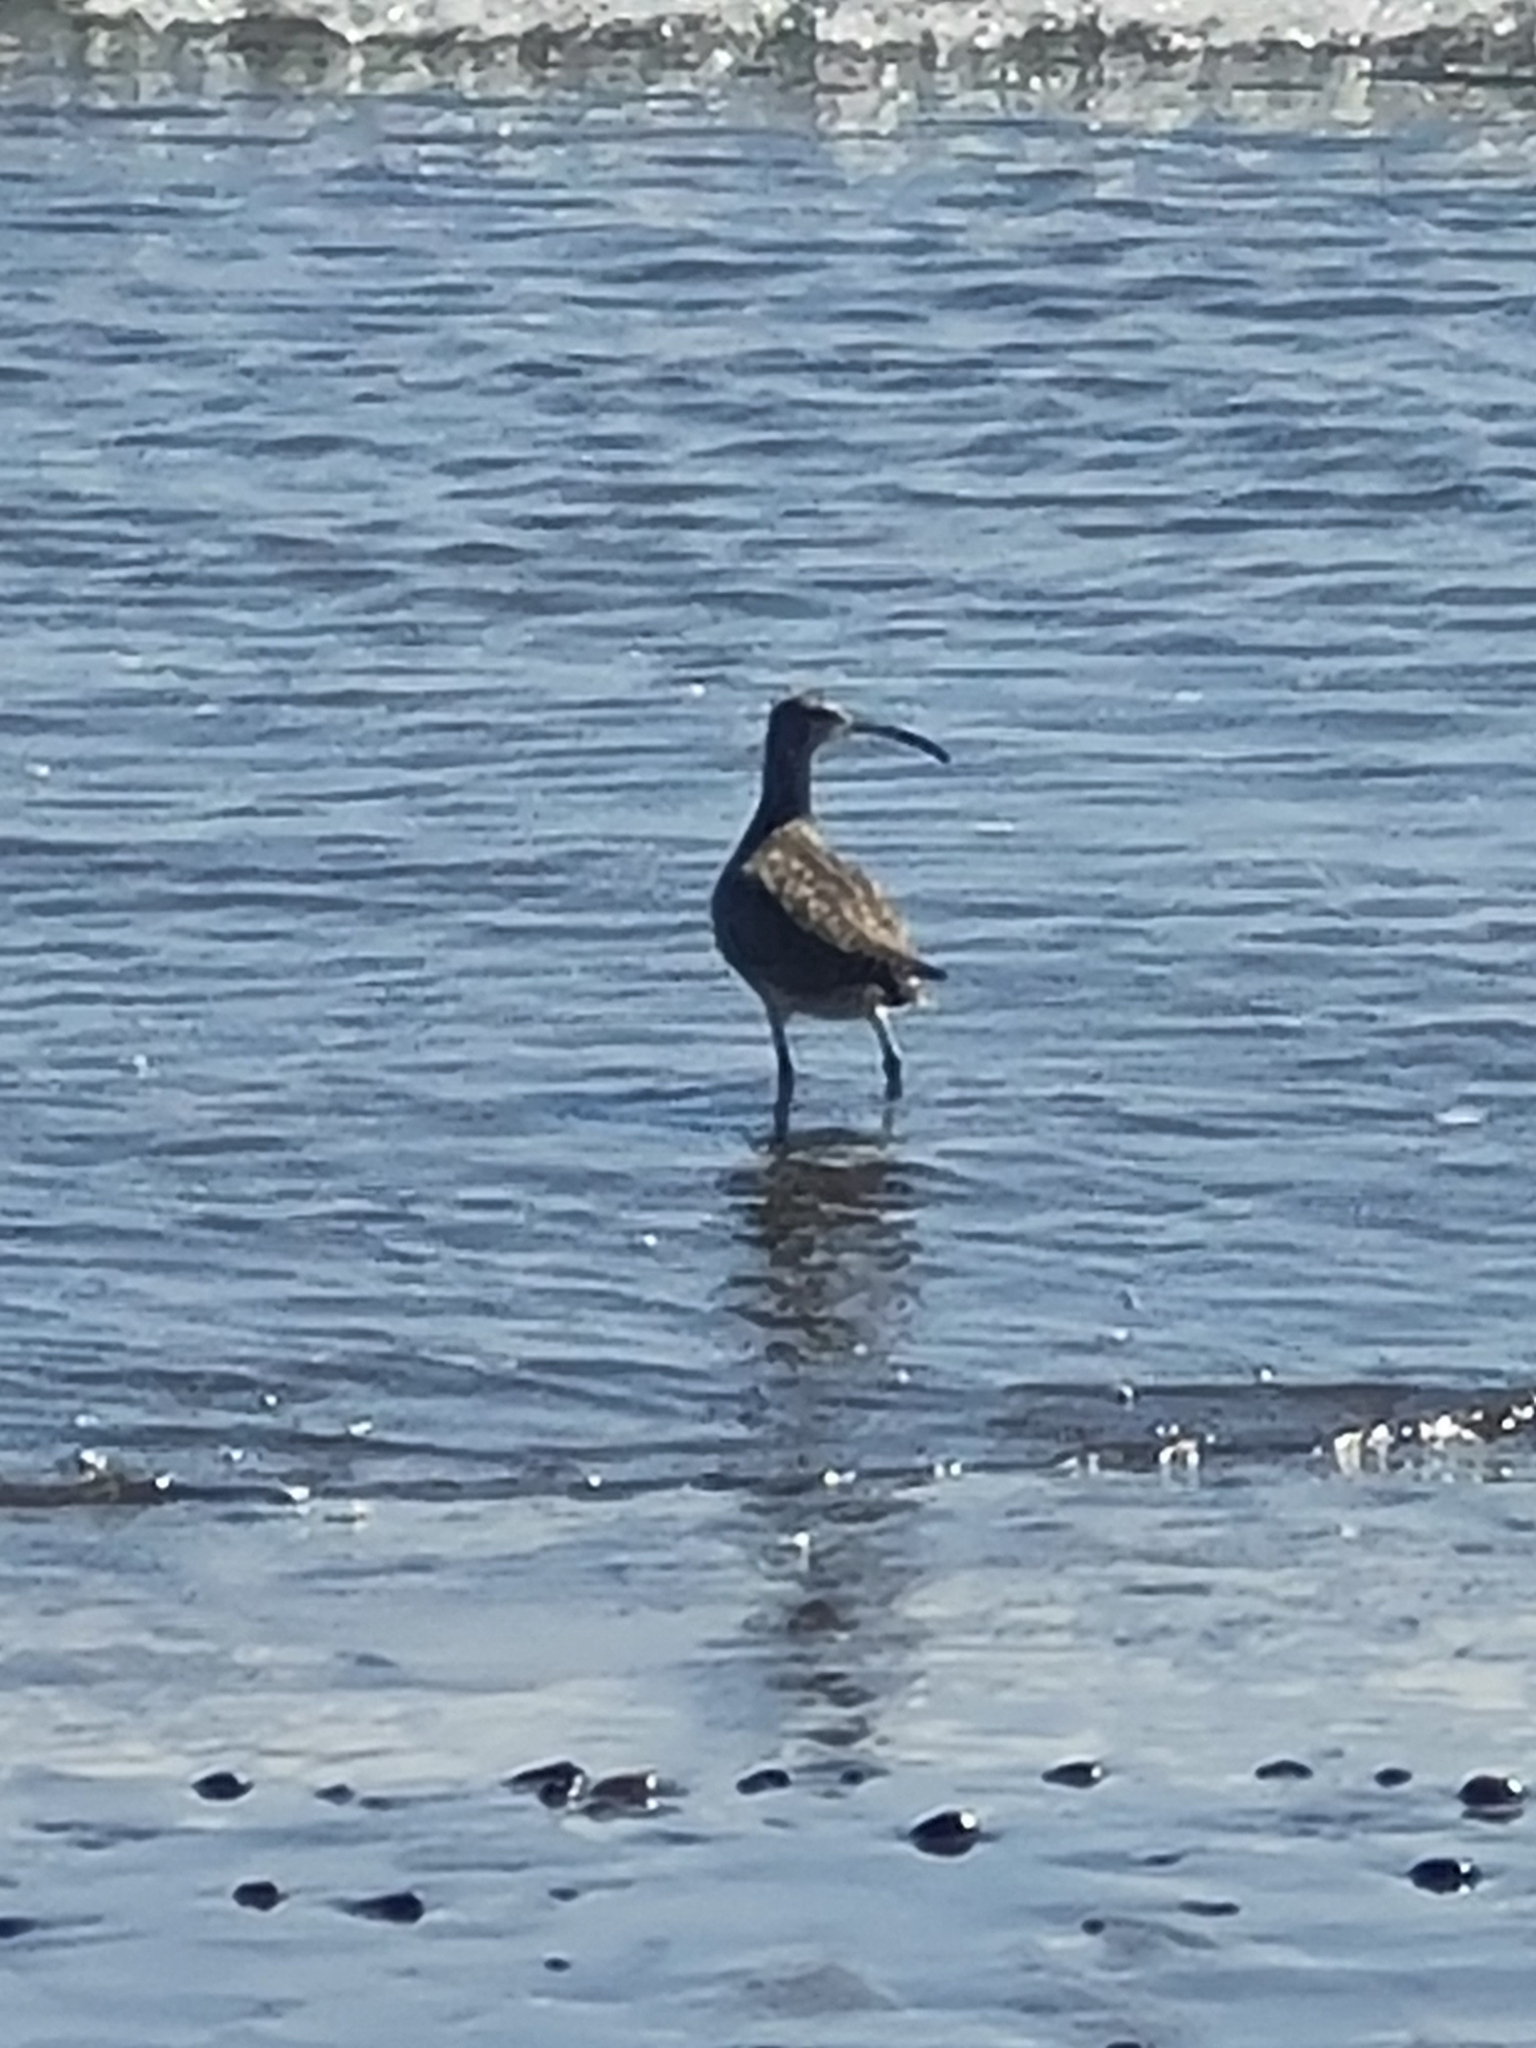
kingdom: Animalia
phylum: Chordata
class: Aves
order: Charadriiformes
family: Scolopacidae
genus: Numenius
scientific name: Numenius phaeopus
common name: Whimbrel
